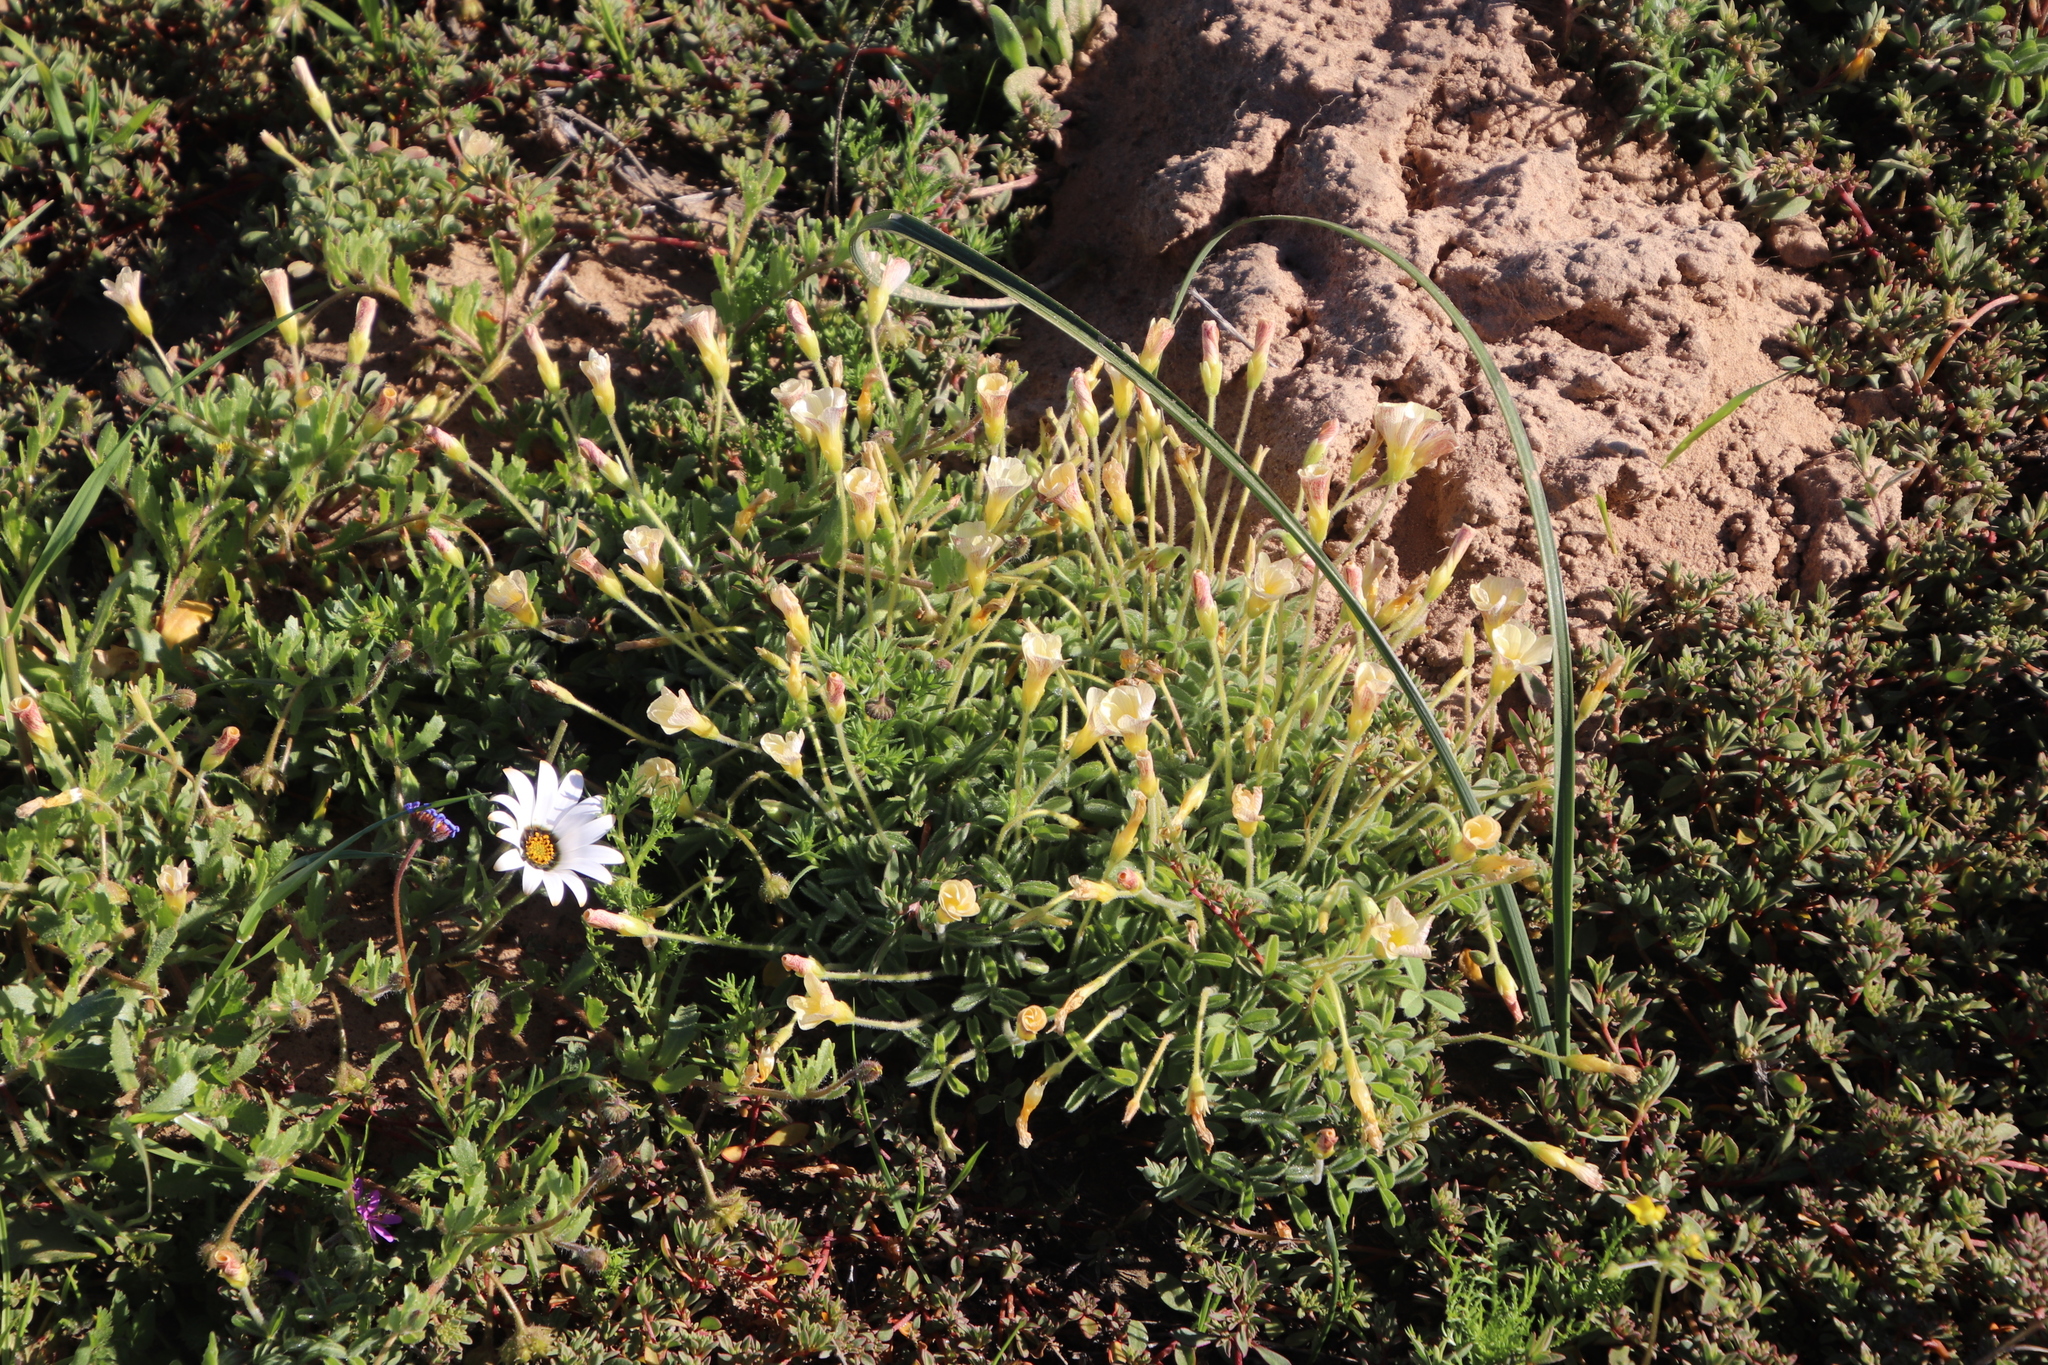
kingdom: Plantae
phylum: Tracheophyta
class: Magnoliopsida
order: Oxalidales
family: Oxalidaceae
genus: Oxalis
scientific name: Oxalis obtusa
